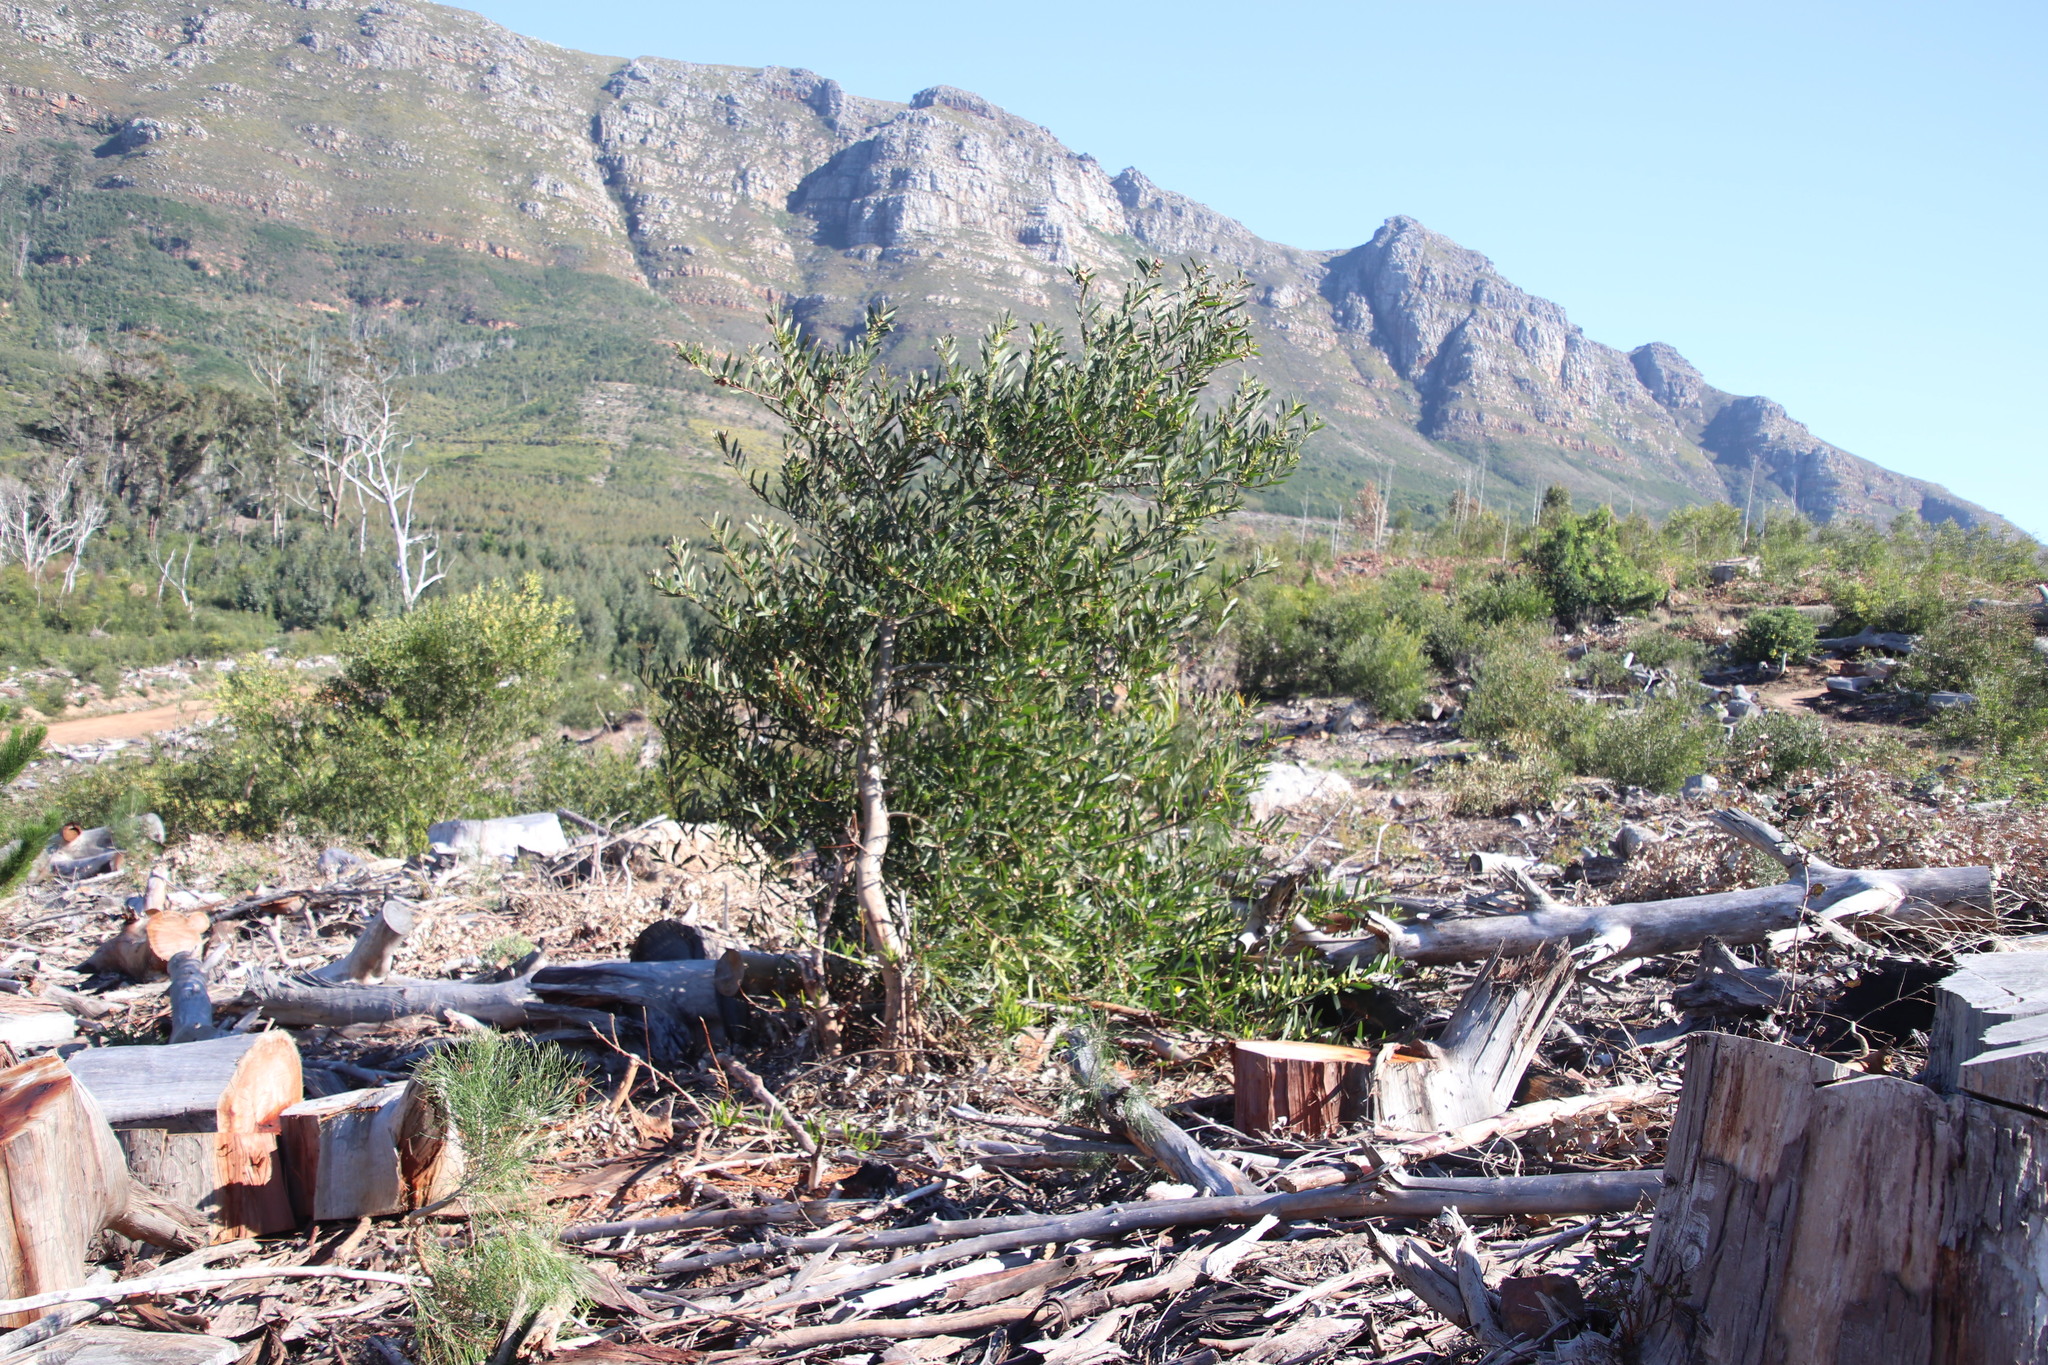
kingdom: Plantae
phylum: Tracheophyta
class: Magnoliopsida
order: Fabales
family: Fabaceae
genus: Acacia
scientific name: Acacia longifolia
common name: Sydney golden wattle
